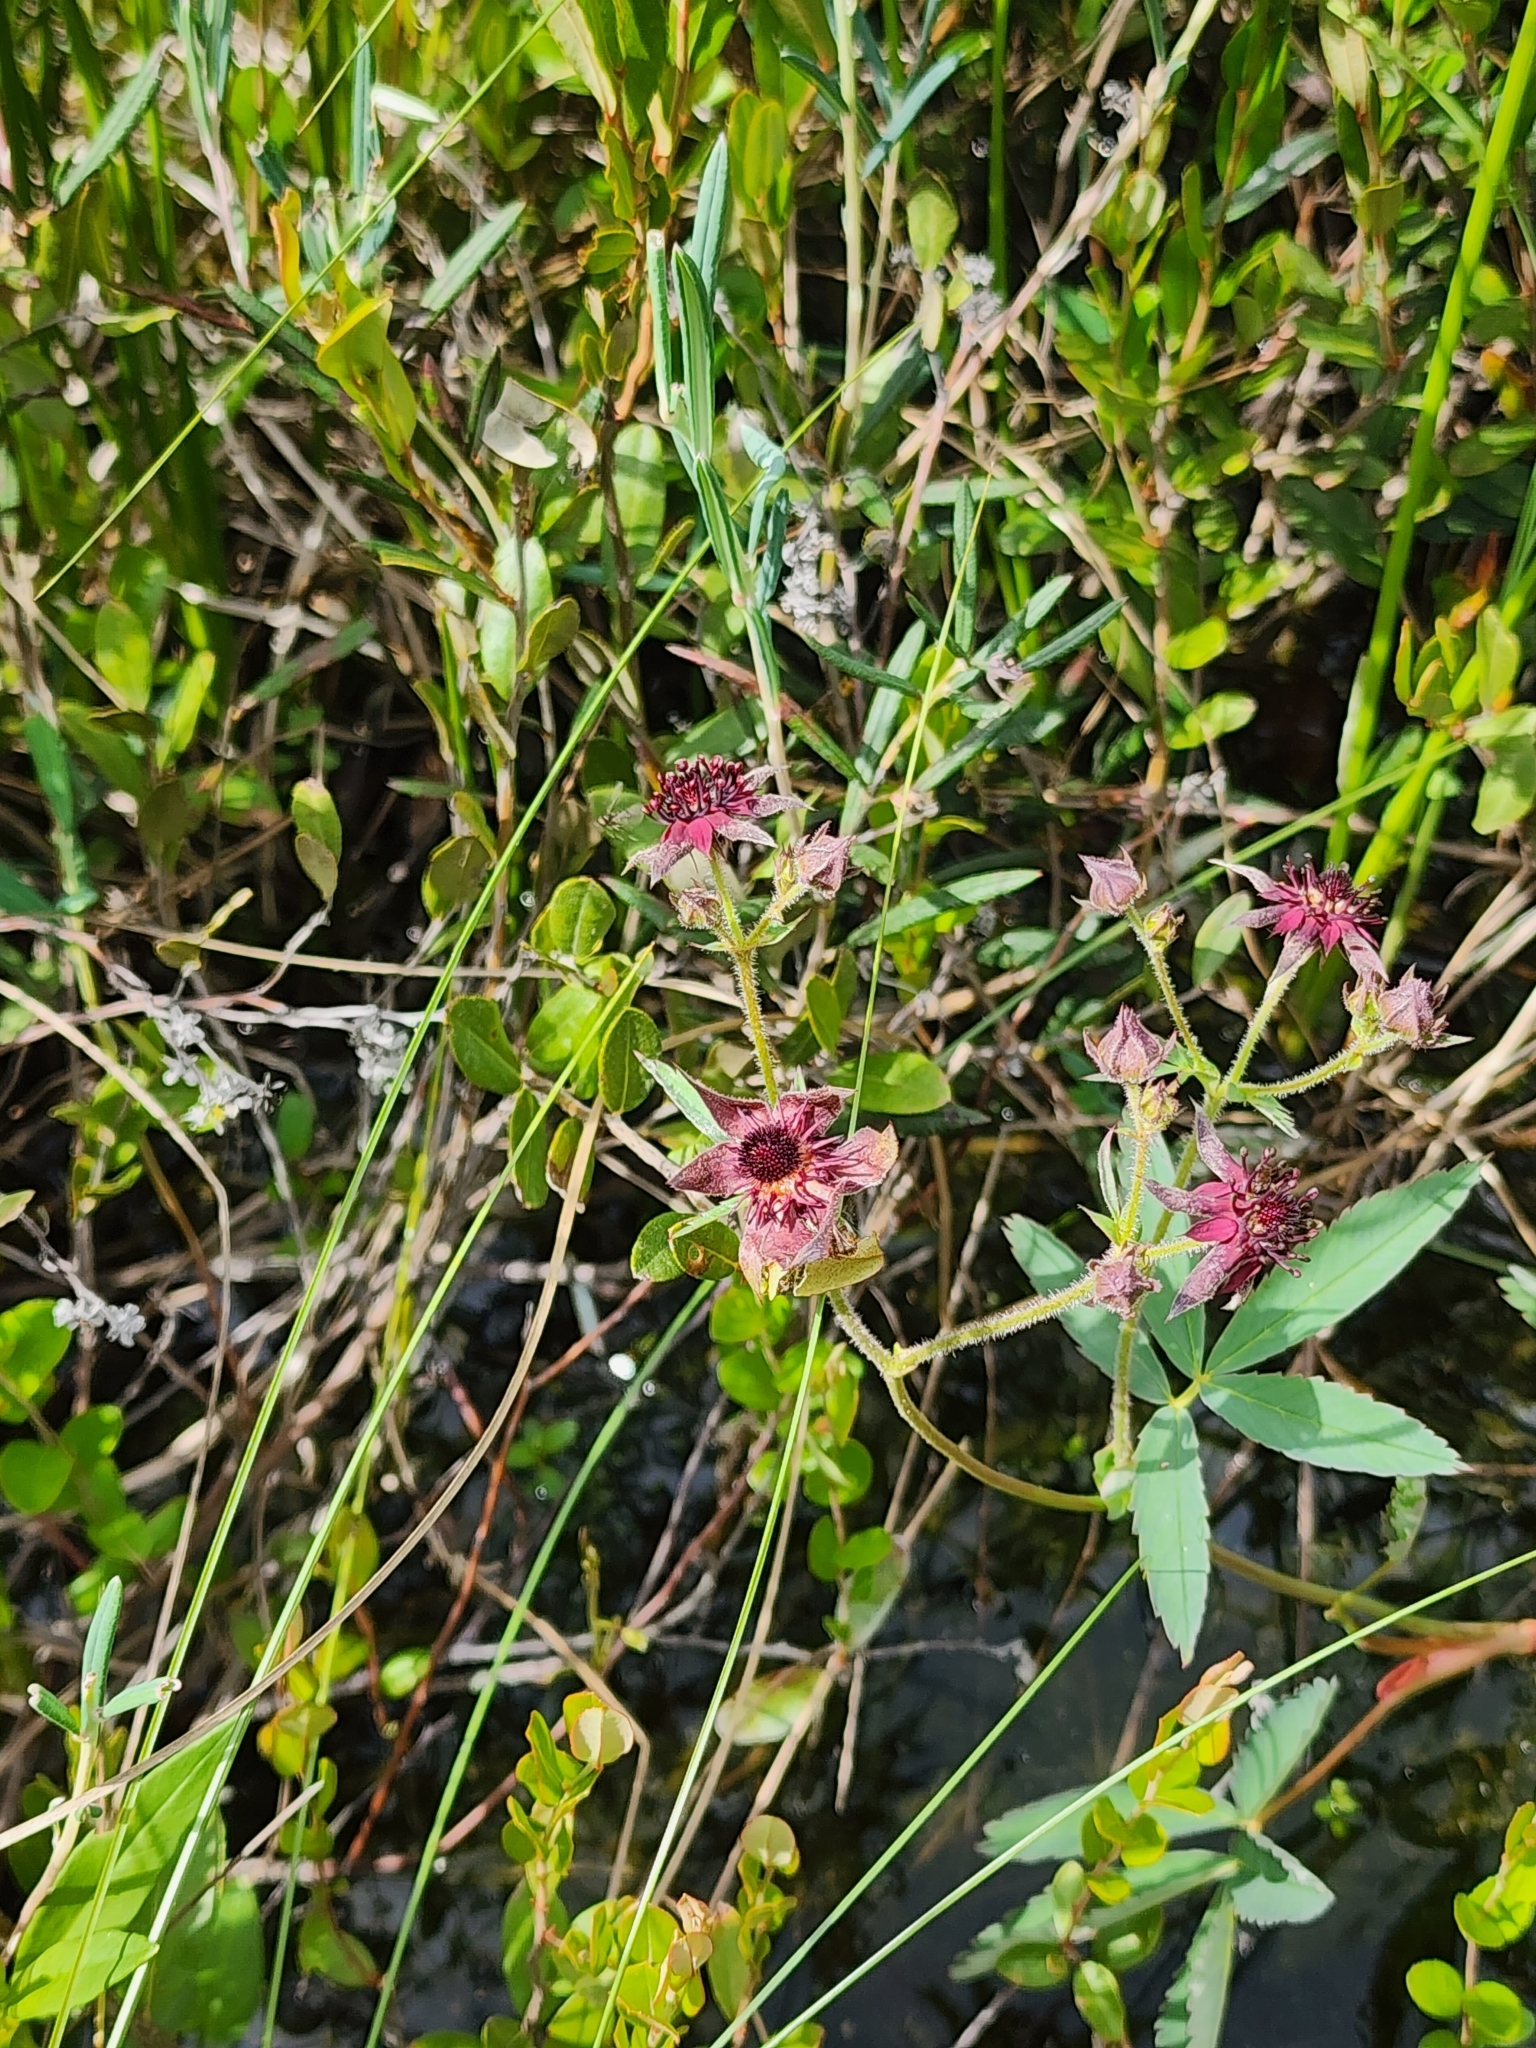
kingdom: Plantae
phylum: Tracheophyta
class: Magnoliopsida
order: Rosales
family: Rosaceae
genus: Comarum
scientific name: Comarum palustre
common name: Marsh cinquefoil
